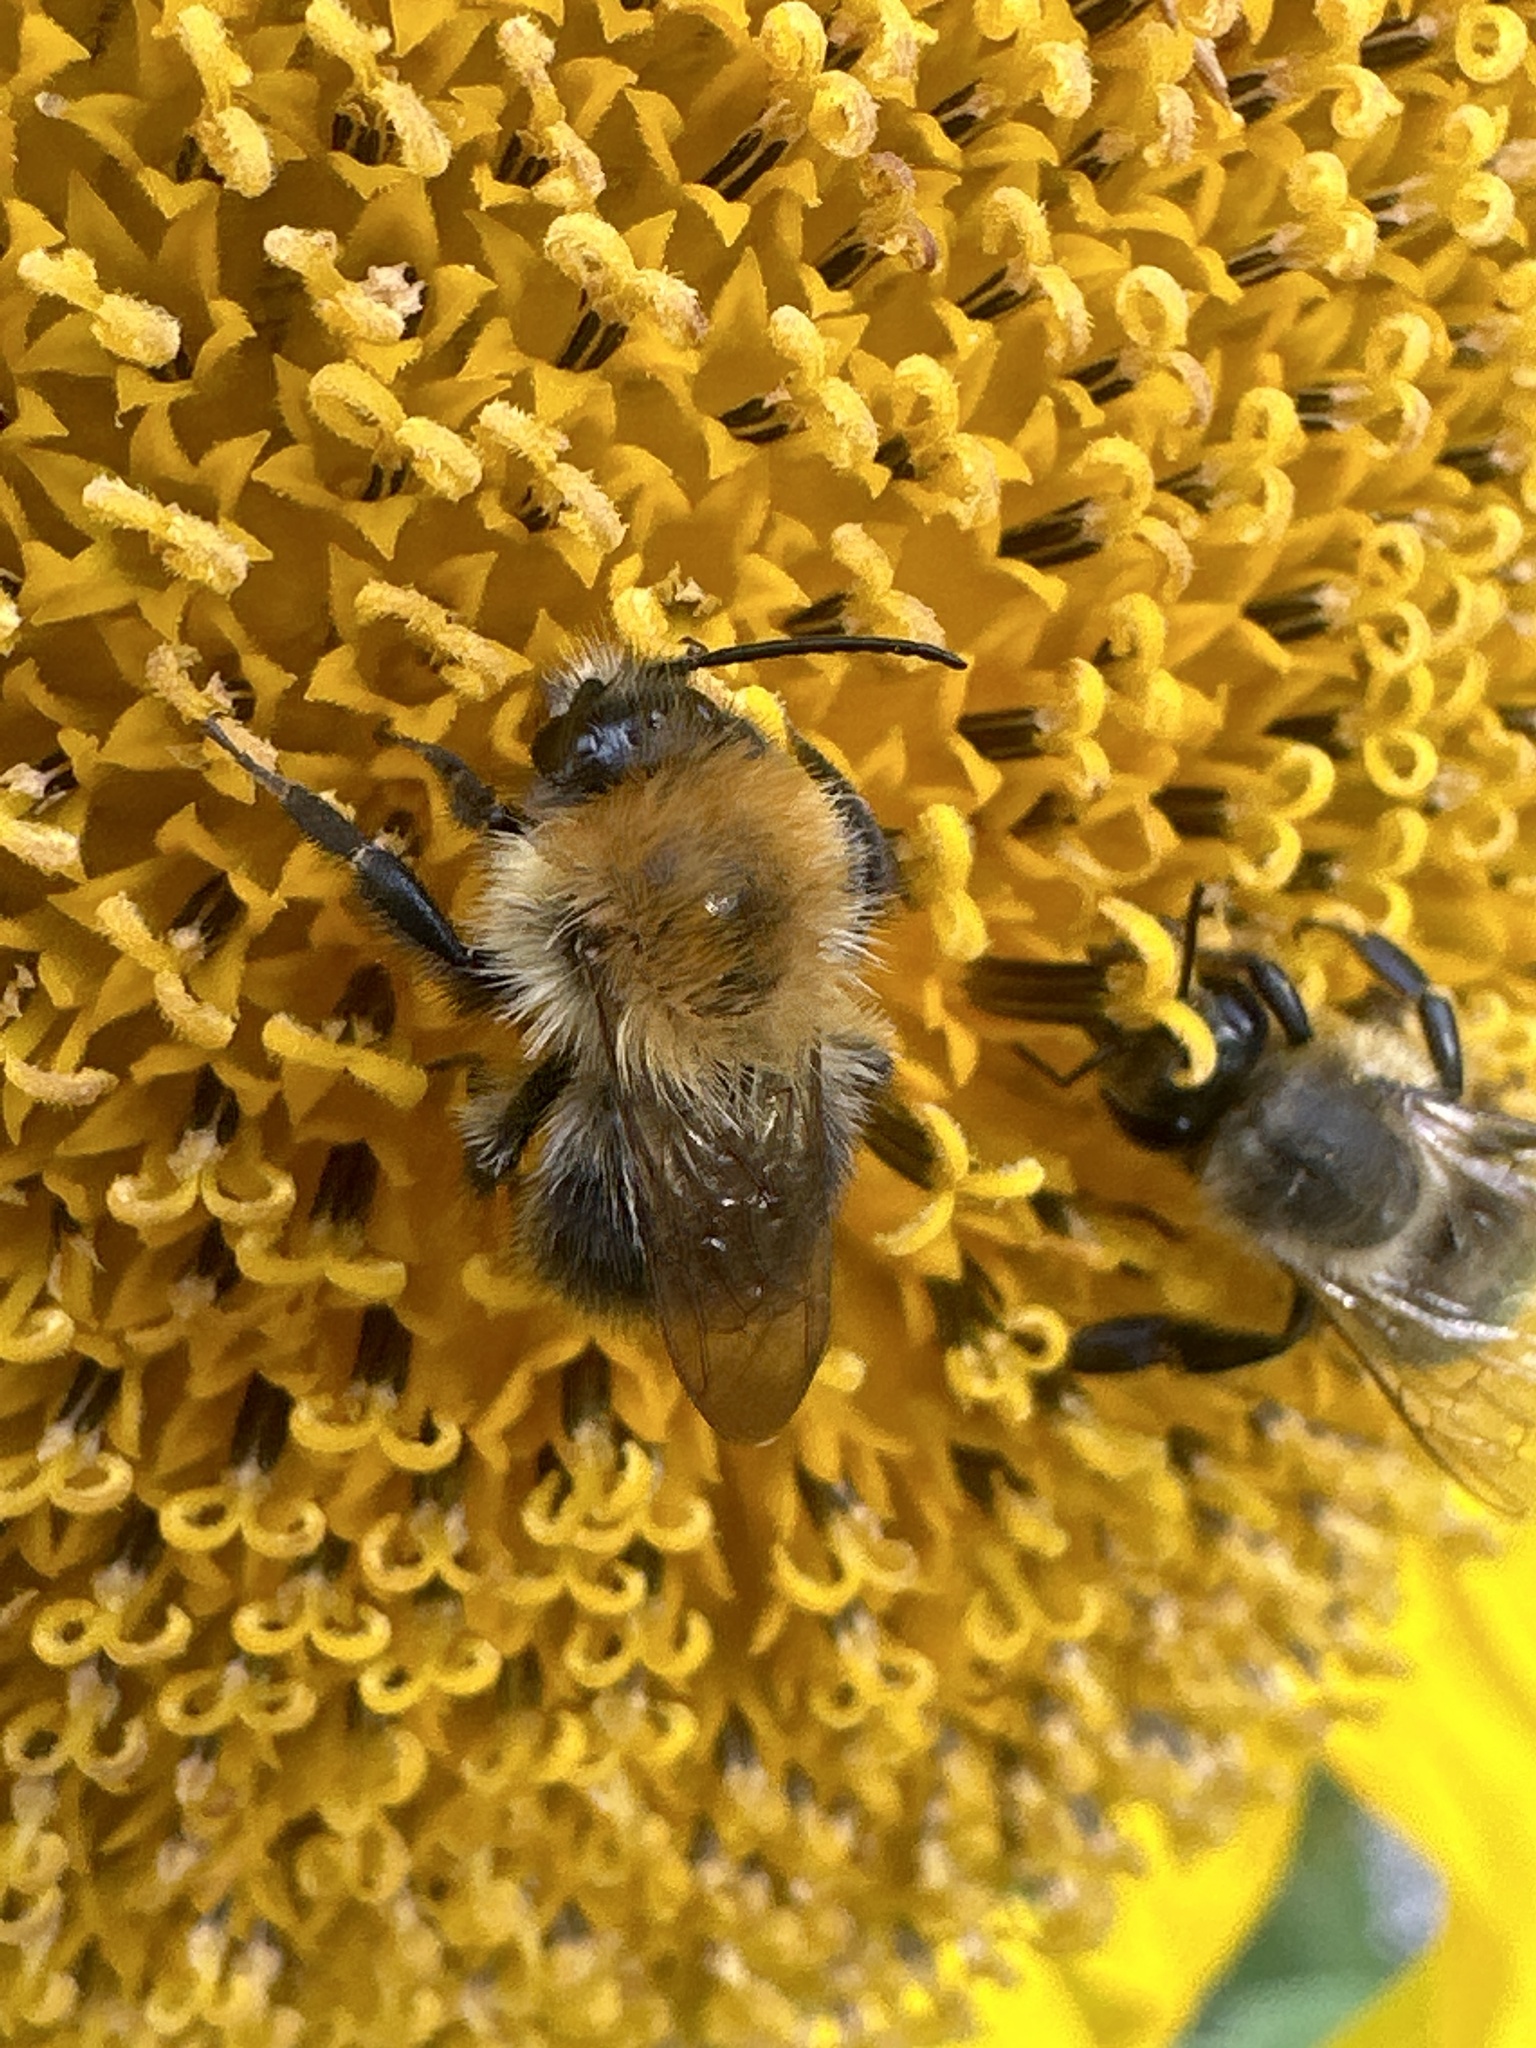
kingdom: Animalia
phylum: Arthropoda
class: Insecta
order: Hymenoptera
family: Apidae
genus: Bombus
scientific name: Bombus pascuorum
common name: Common carder bee
